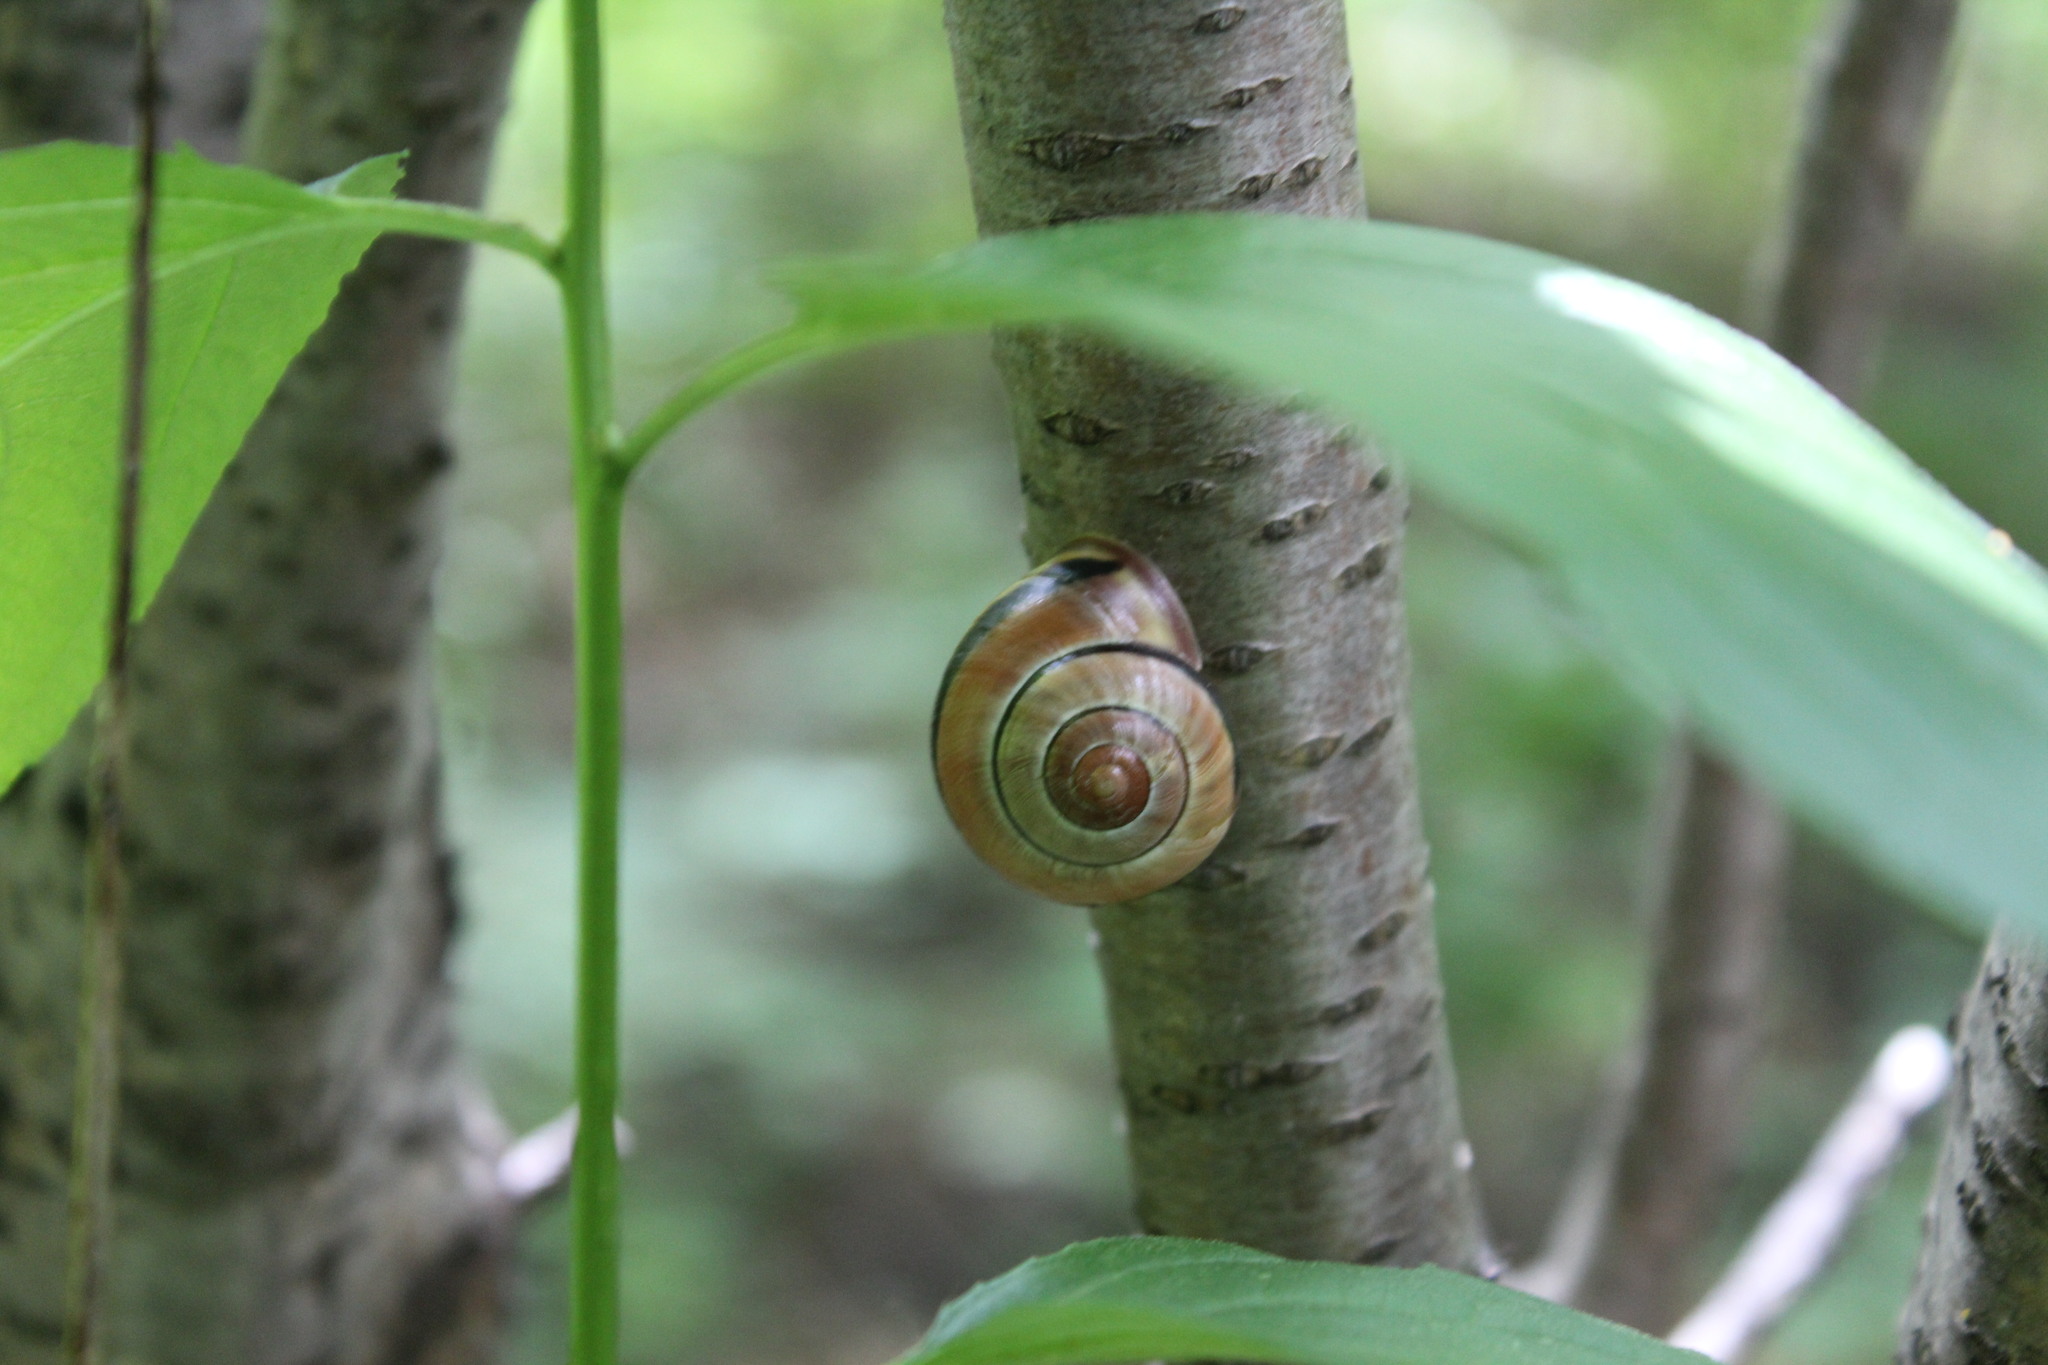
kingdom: Animalia
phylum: Mollusca
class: Gastropoda
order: Stylommatophora
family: Helicidae
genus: Cepaea
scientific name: Cepaea nemoralis
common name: Grovesnail
